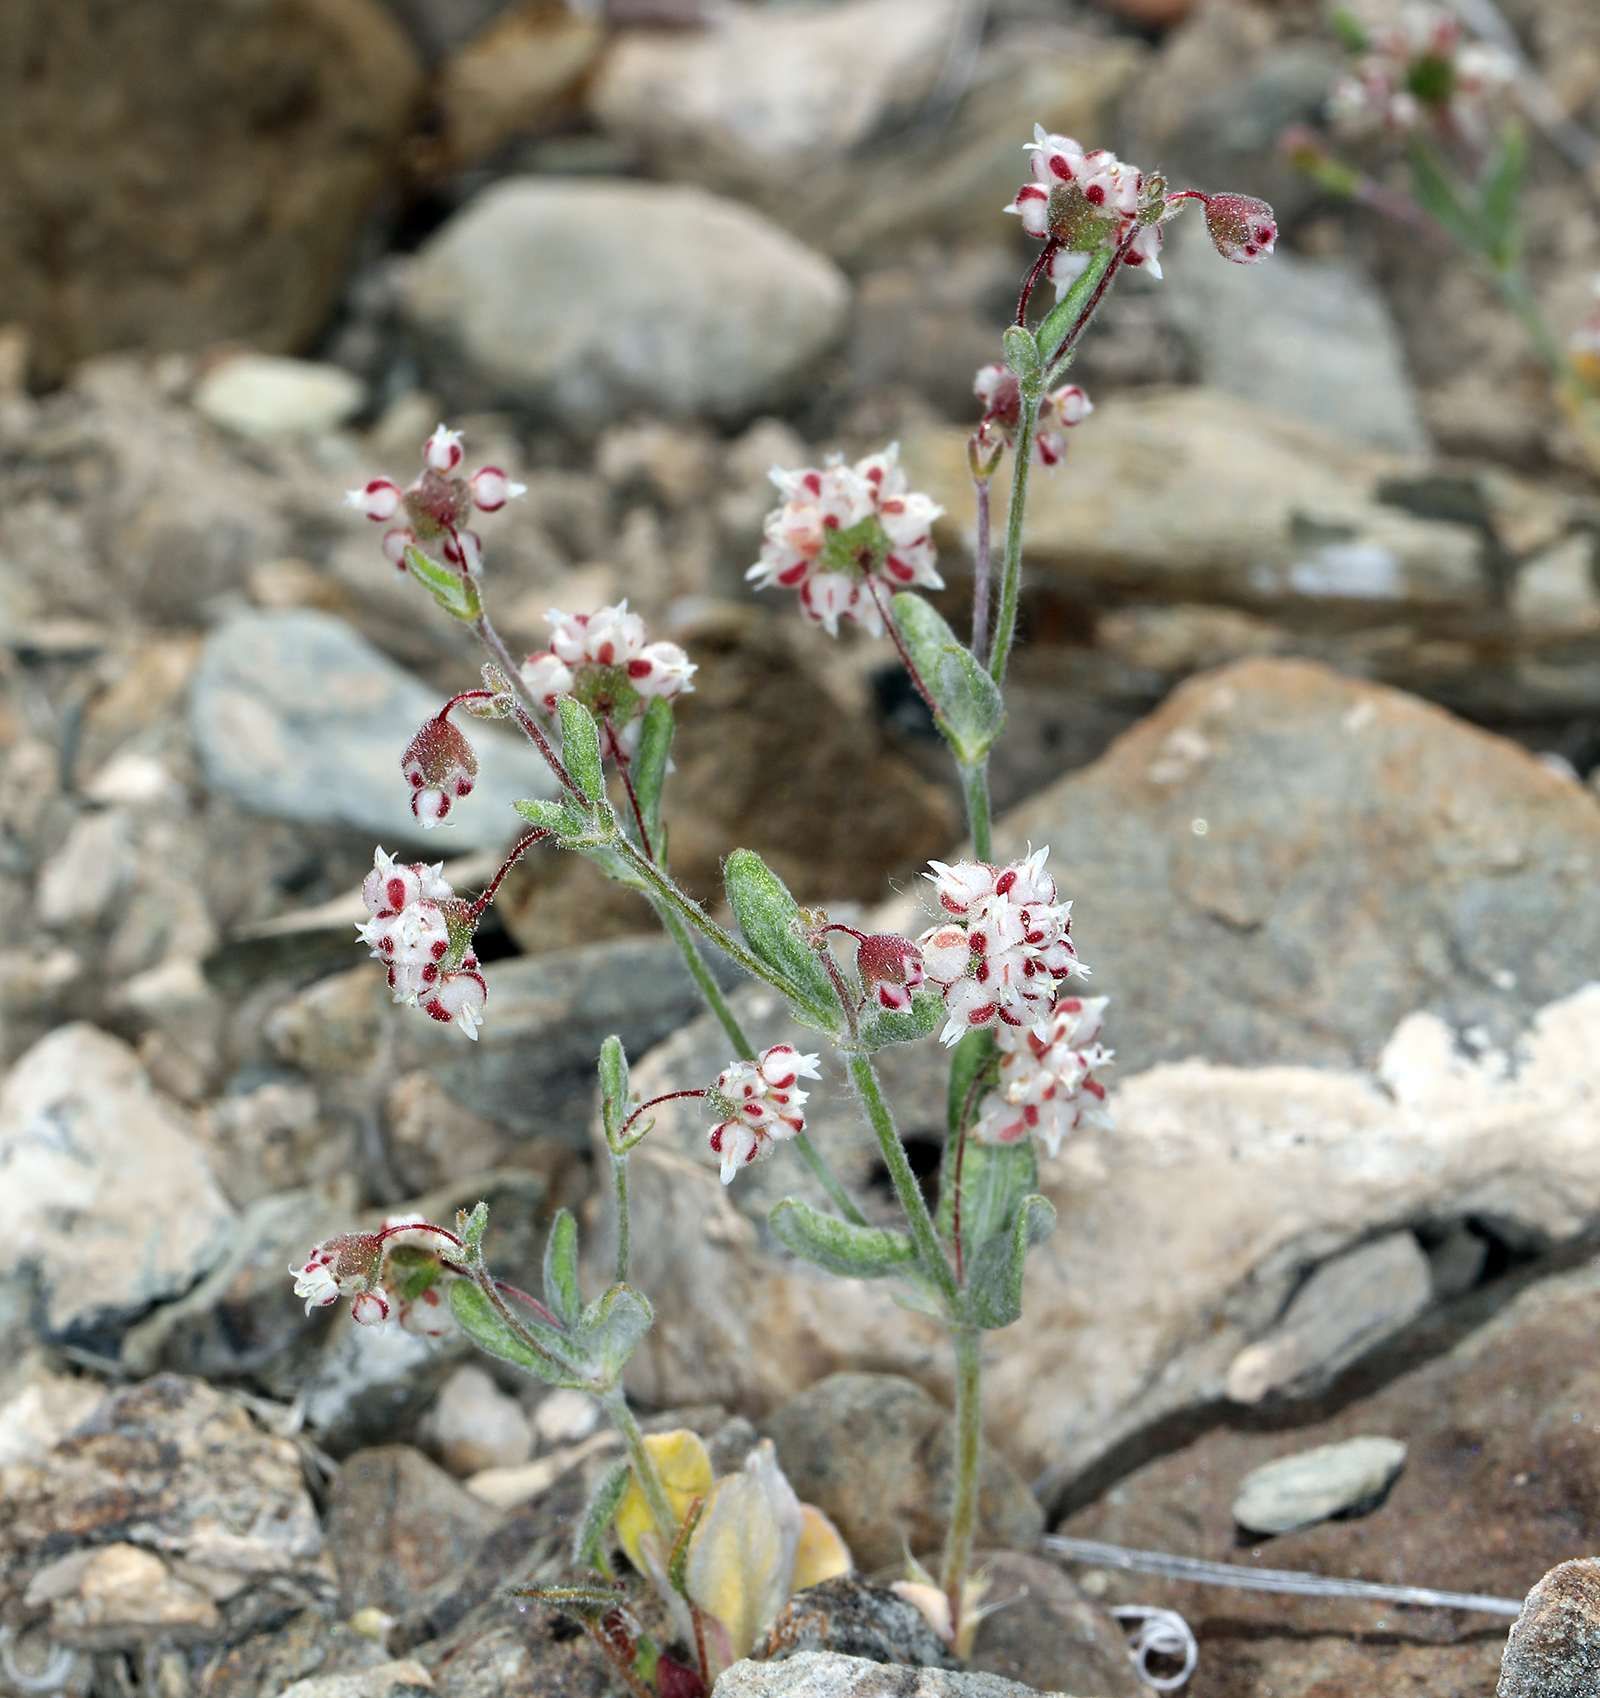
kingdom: Plantae
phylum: Tracheophyta
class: Magnoliopsida
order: Caryophyllales
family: Polygonaceae
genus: Eriogonum
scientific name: Eriogonum maculatum
